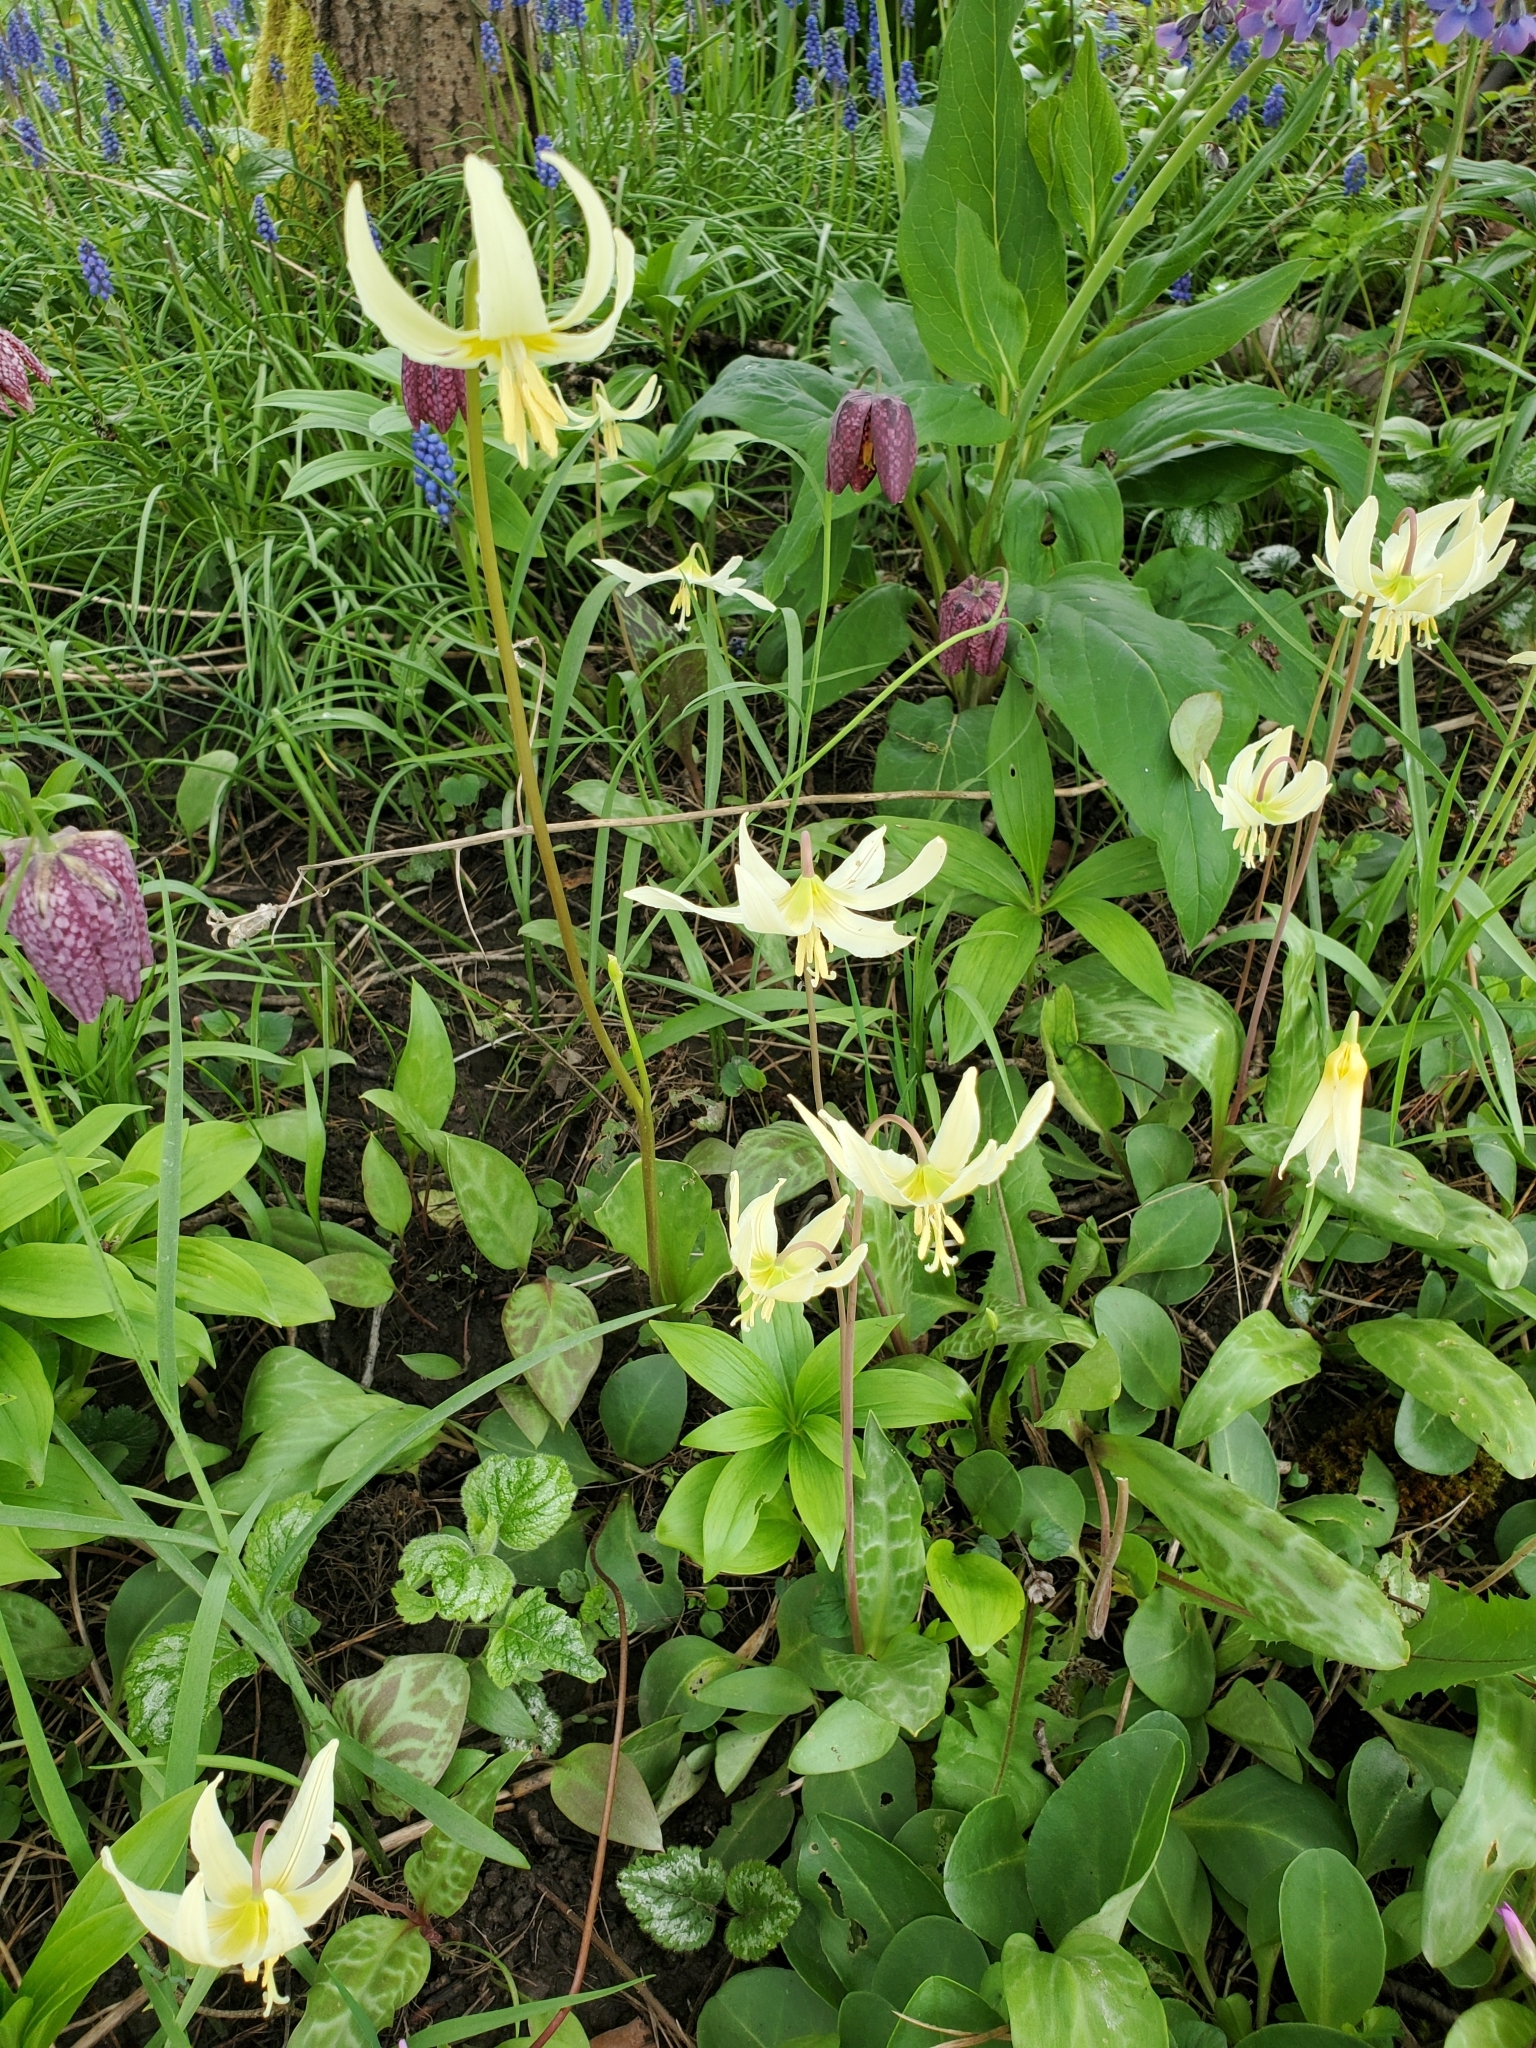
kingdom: Plantae
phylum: Tracheophyta
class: Liliopsida
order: Liliales
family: Liliaceae
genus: Erythronium
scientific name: Erythronium oregonum
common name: Giant adder's-tongue
